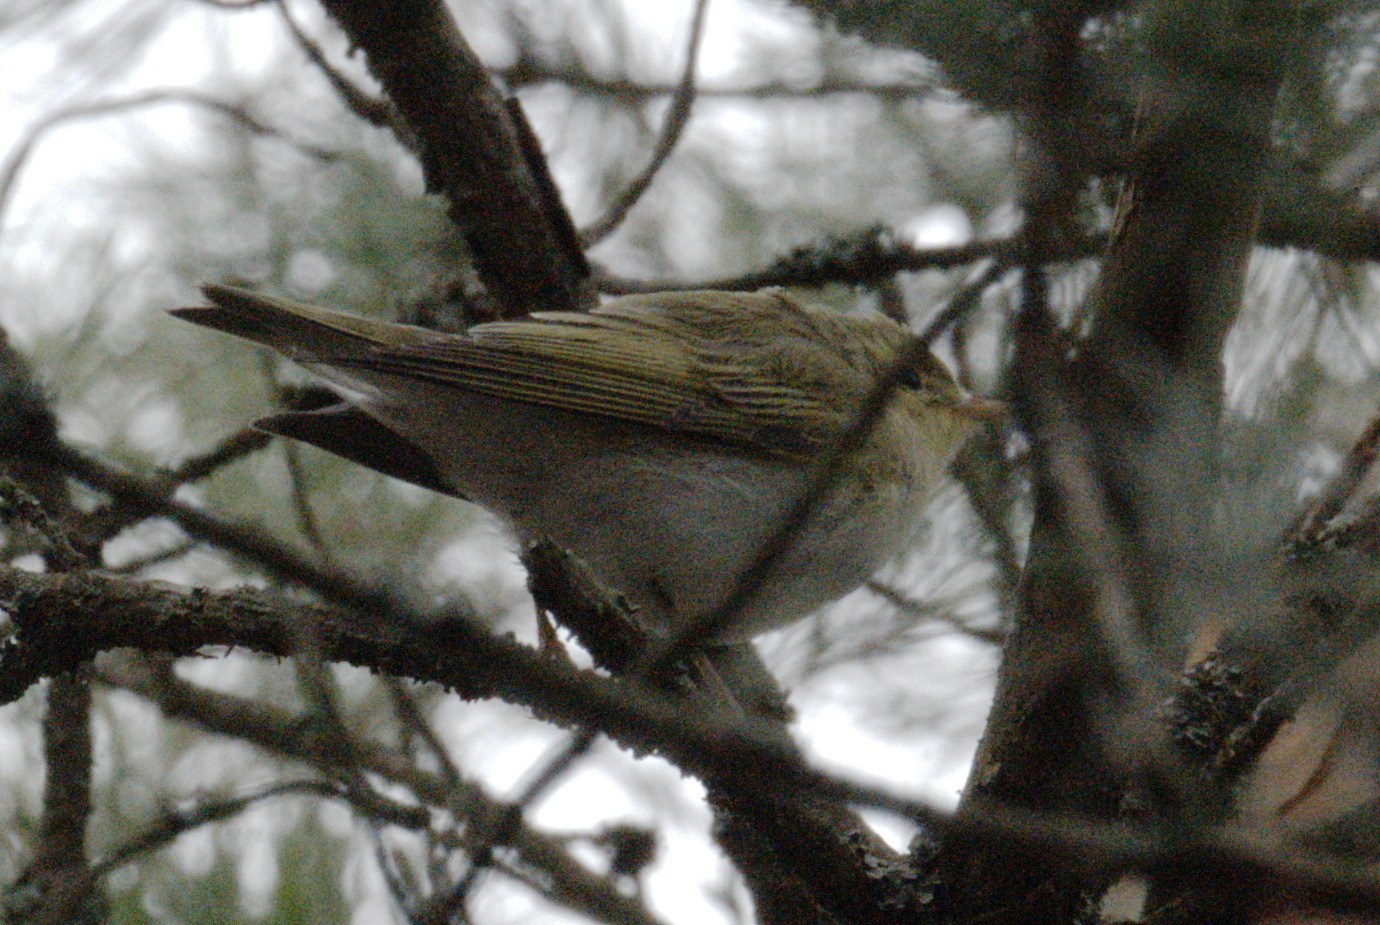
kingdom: Animalia
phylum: Chordata
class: Aves
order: Passeriformes
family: Phylloscopidae
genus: Phylloscopus
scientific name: Phylloscopus sibillatrix
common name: Wood warbler
